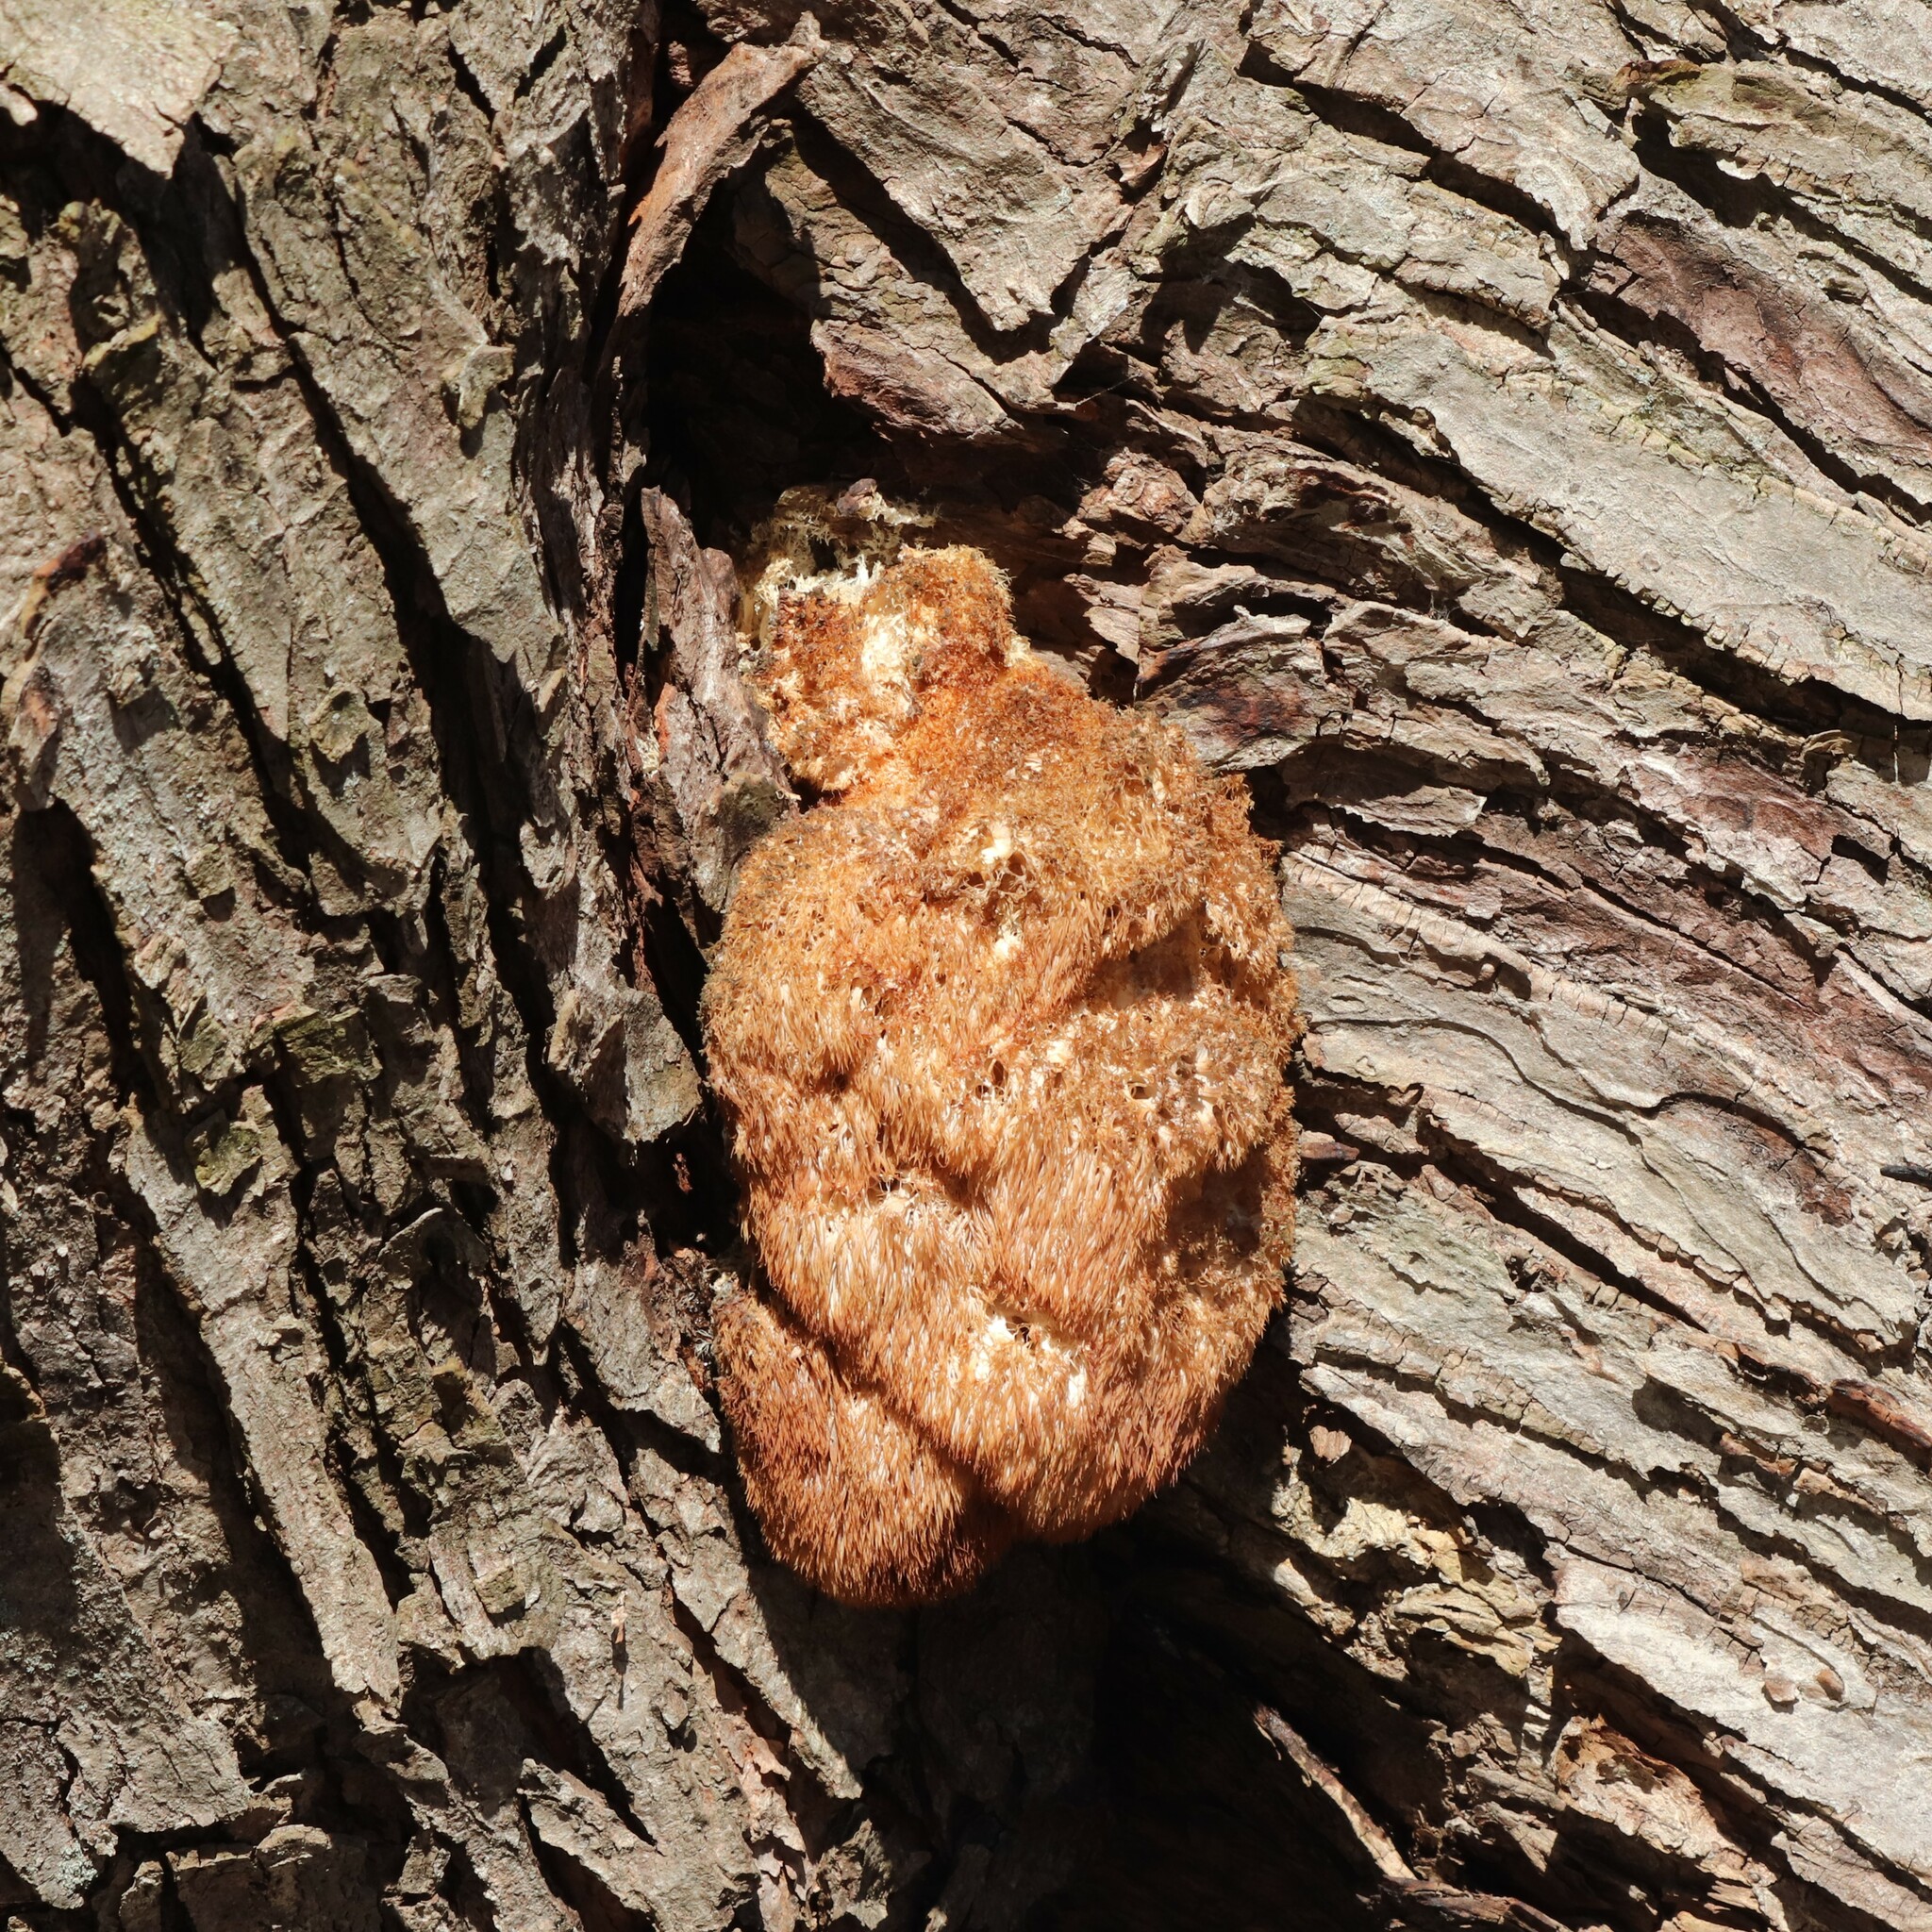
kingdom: Fungi
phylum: Basidiomycota
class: Agaricomycetes
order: Russulales
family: Hericiaceae
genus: Hericium
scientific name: Hericium erinaceus
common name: Bearded tooth
